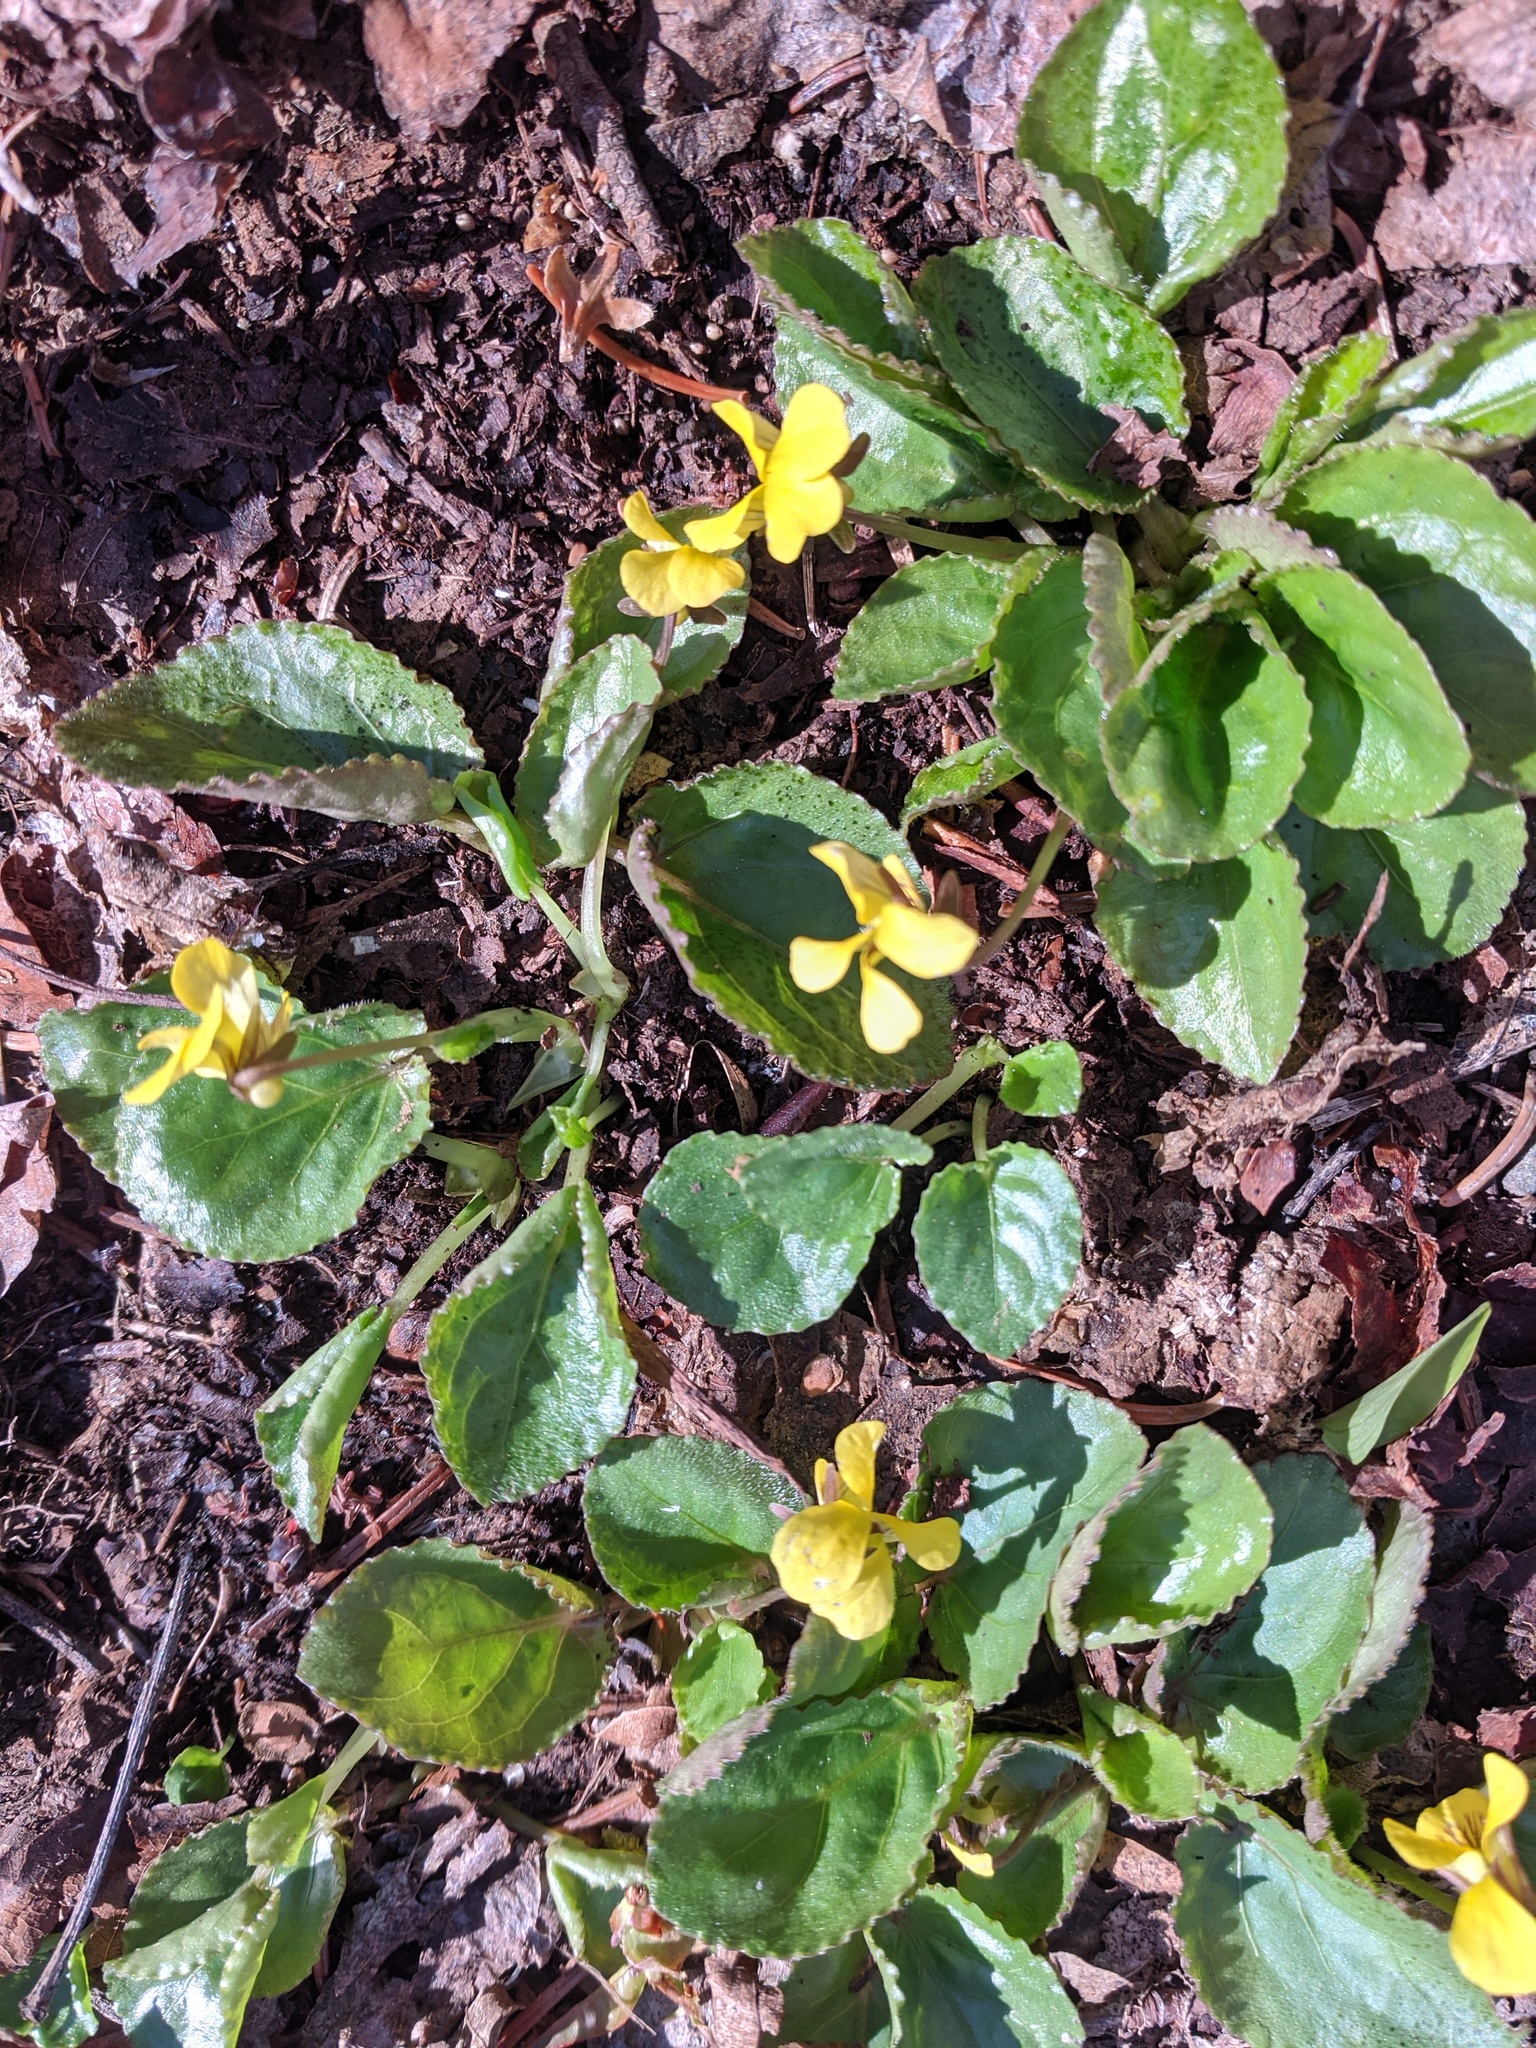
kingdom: Plantae
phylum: Tracheophyta
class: Magnoliopsida
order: Malpighiales
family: Violaceae
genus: Viola
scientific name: Viola rotundifolia
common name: Early yellow violet
